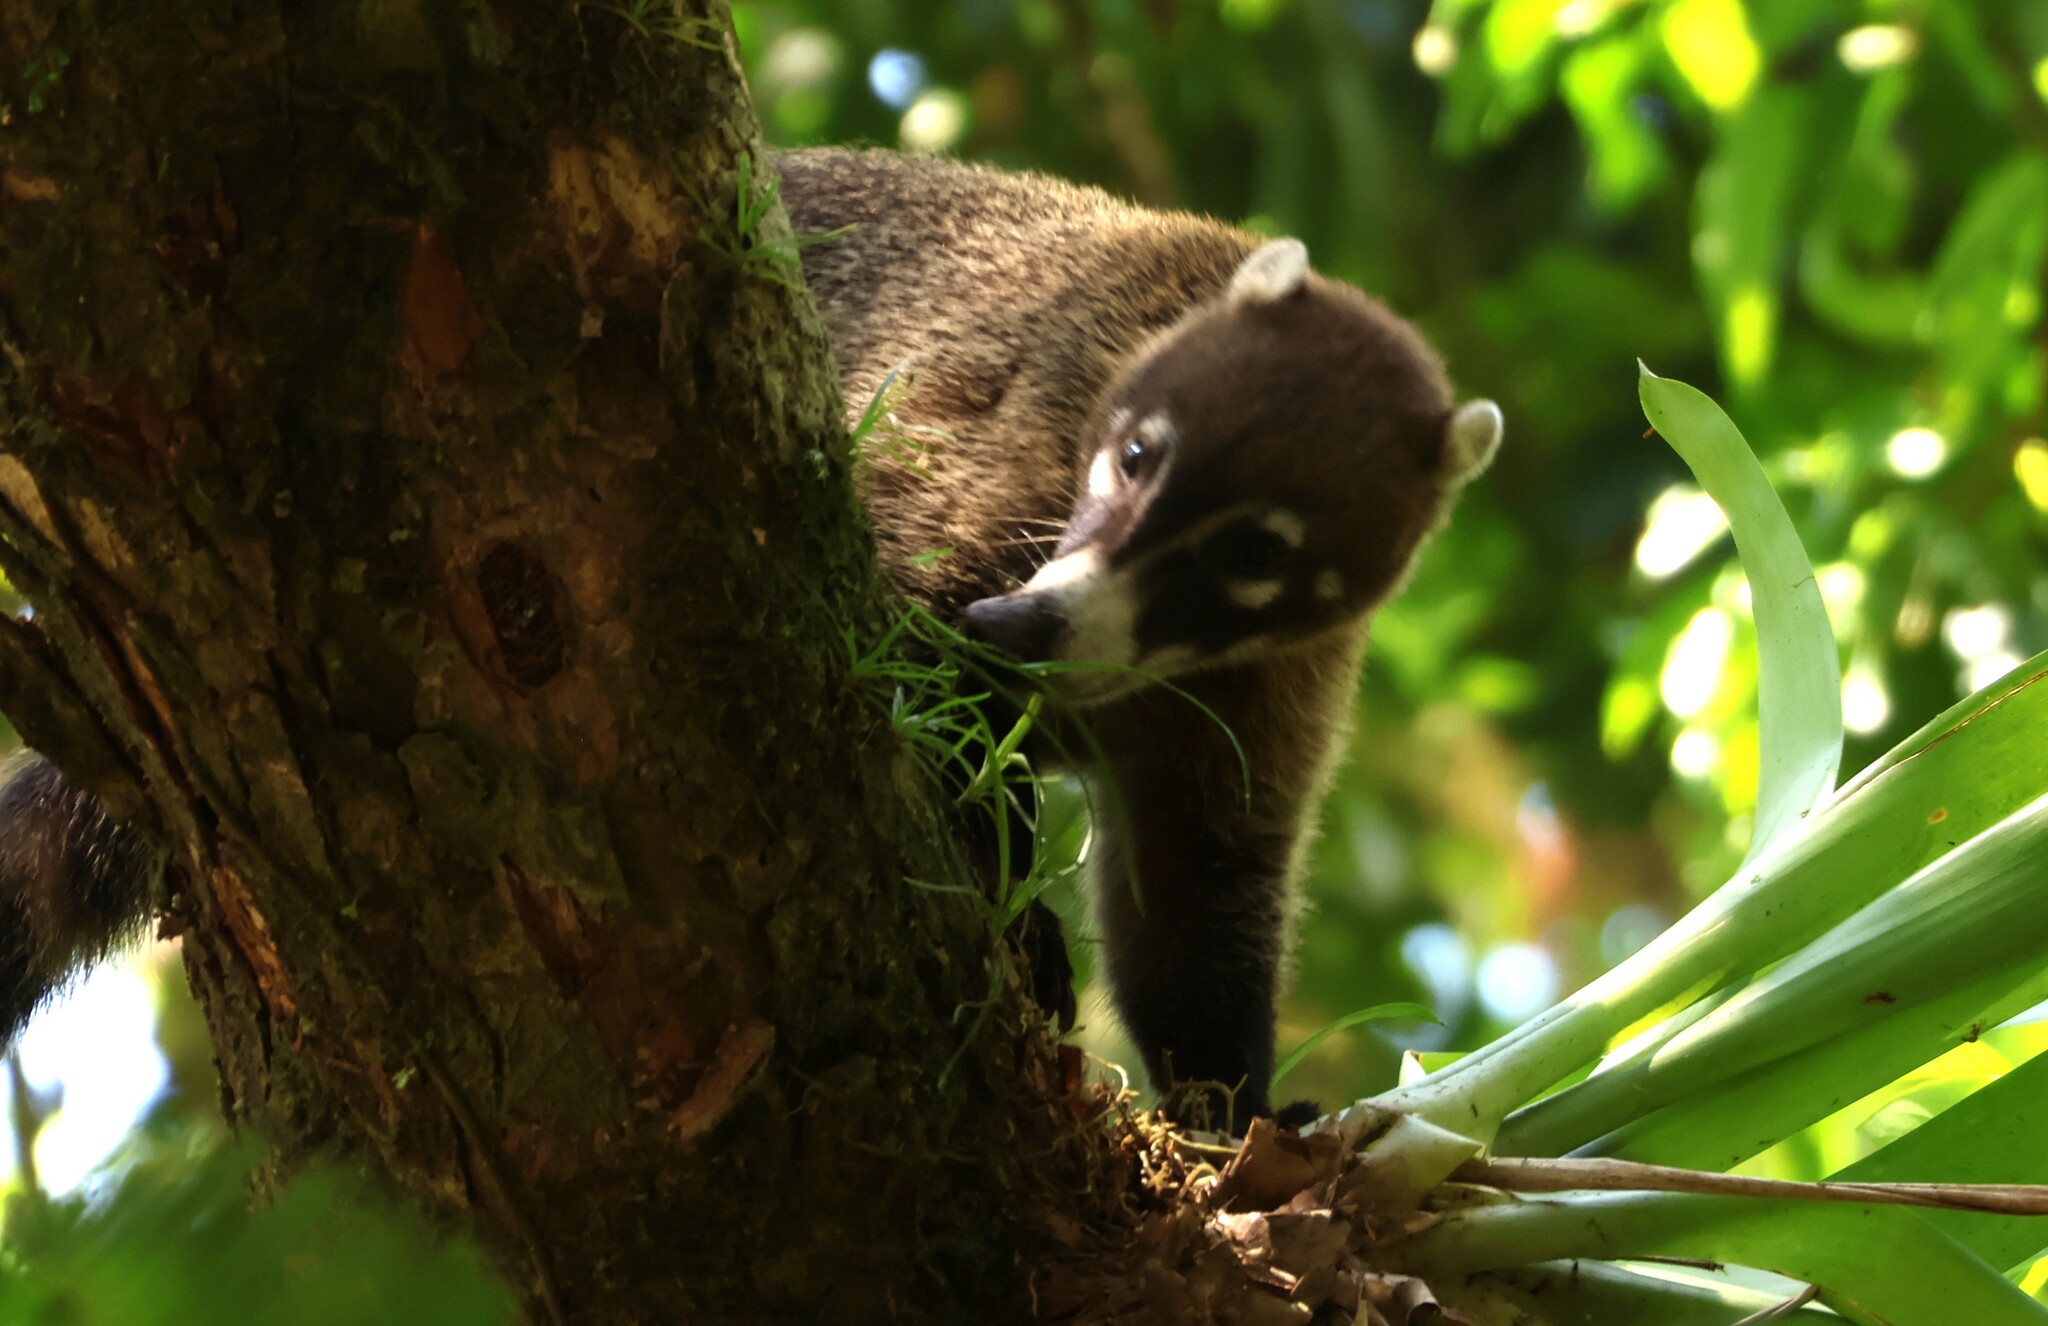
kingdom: Animalia
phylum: Chordata
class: Mammalia
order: Carnivora
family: Procyonidae
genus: Nasua
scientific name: Nasua narica
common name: White-nosed coati
